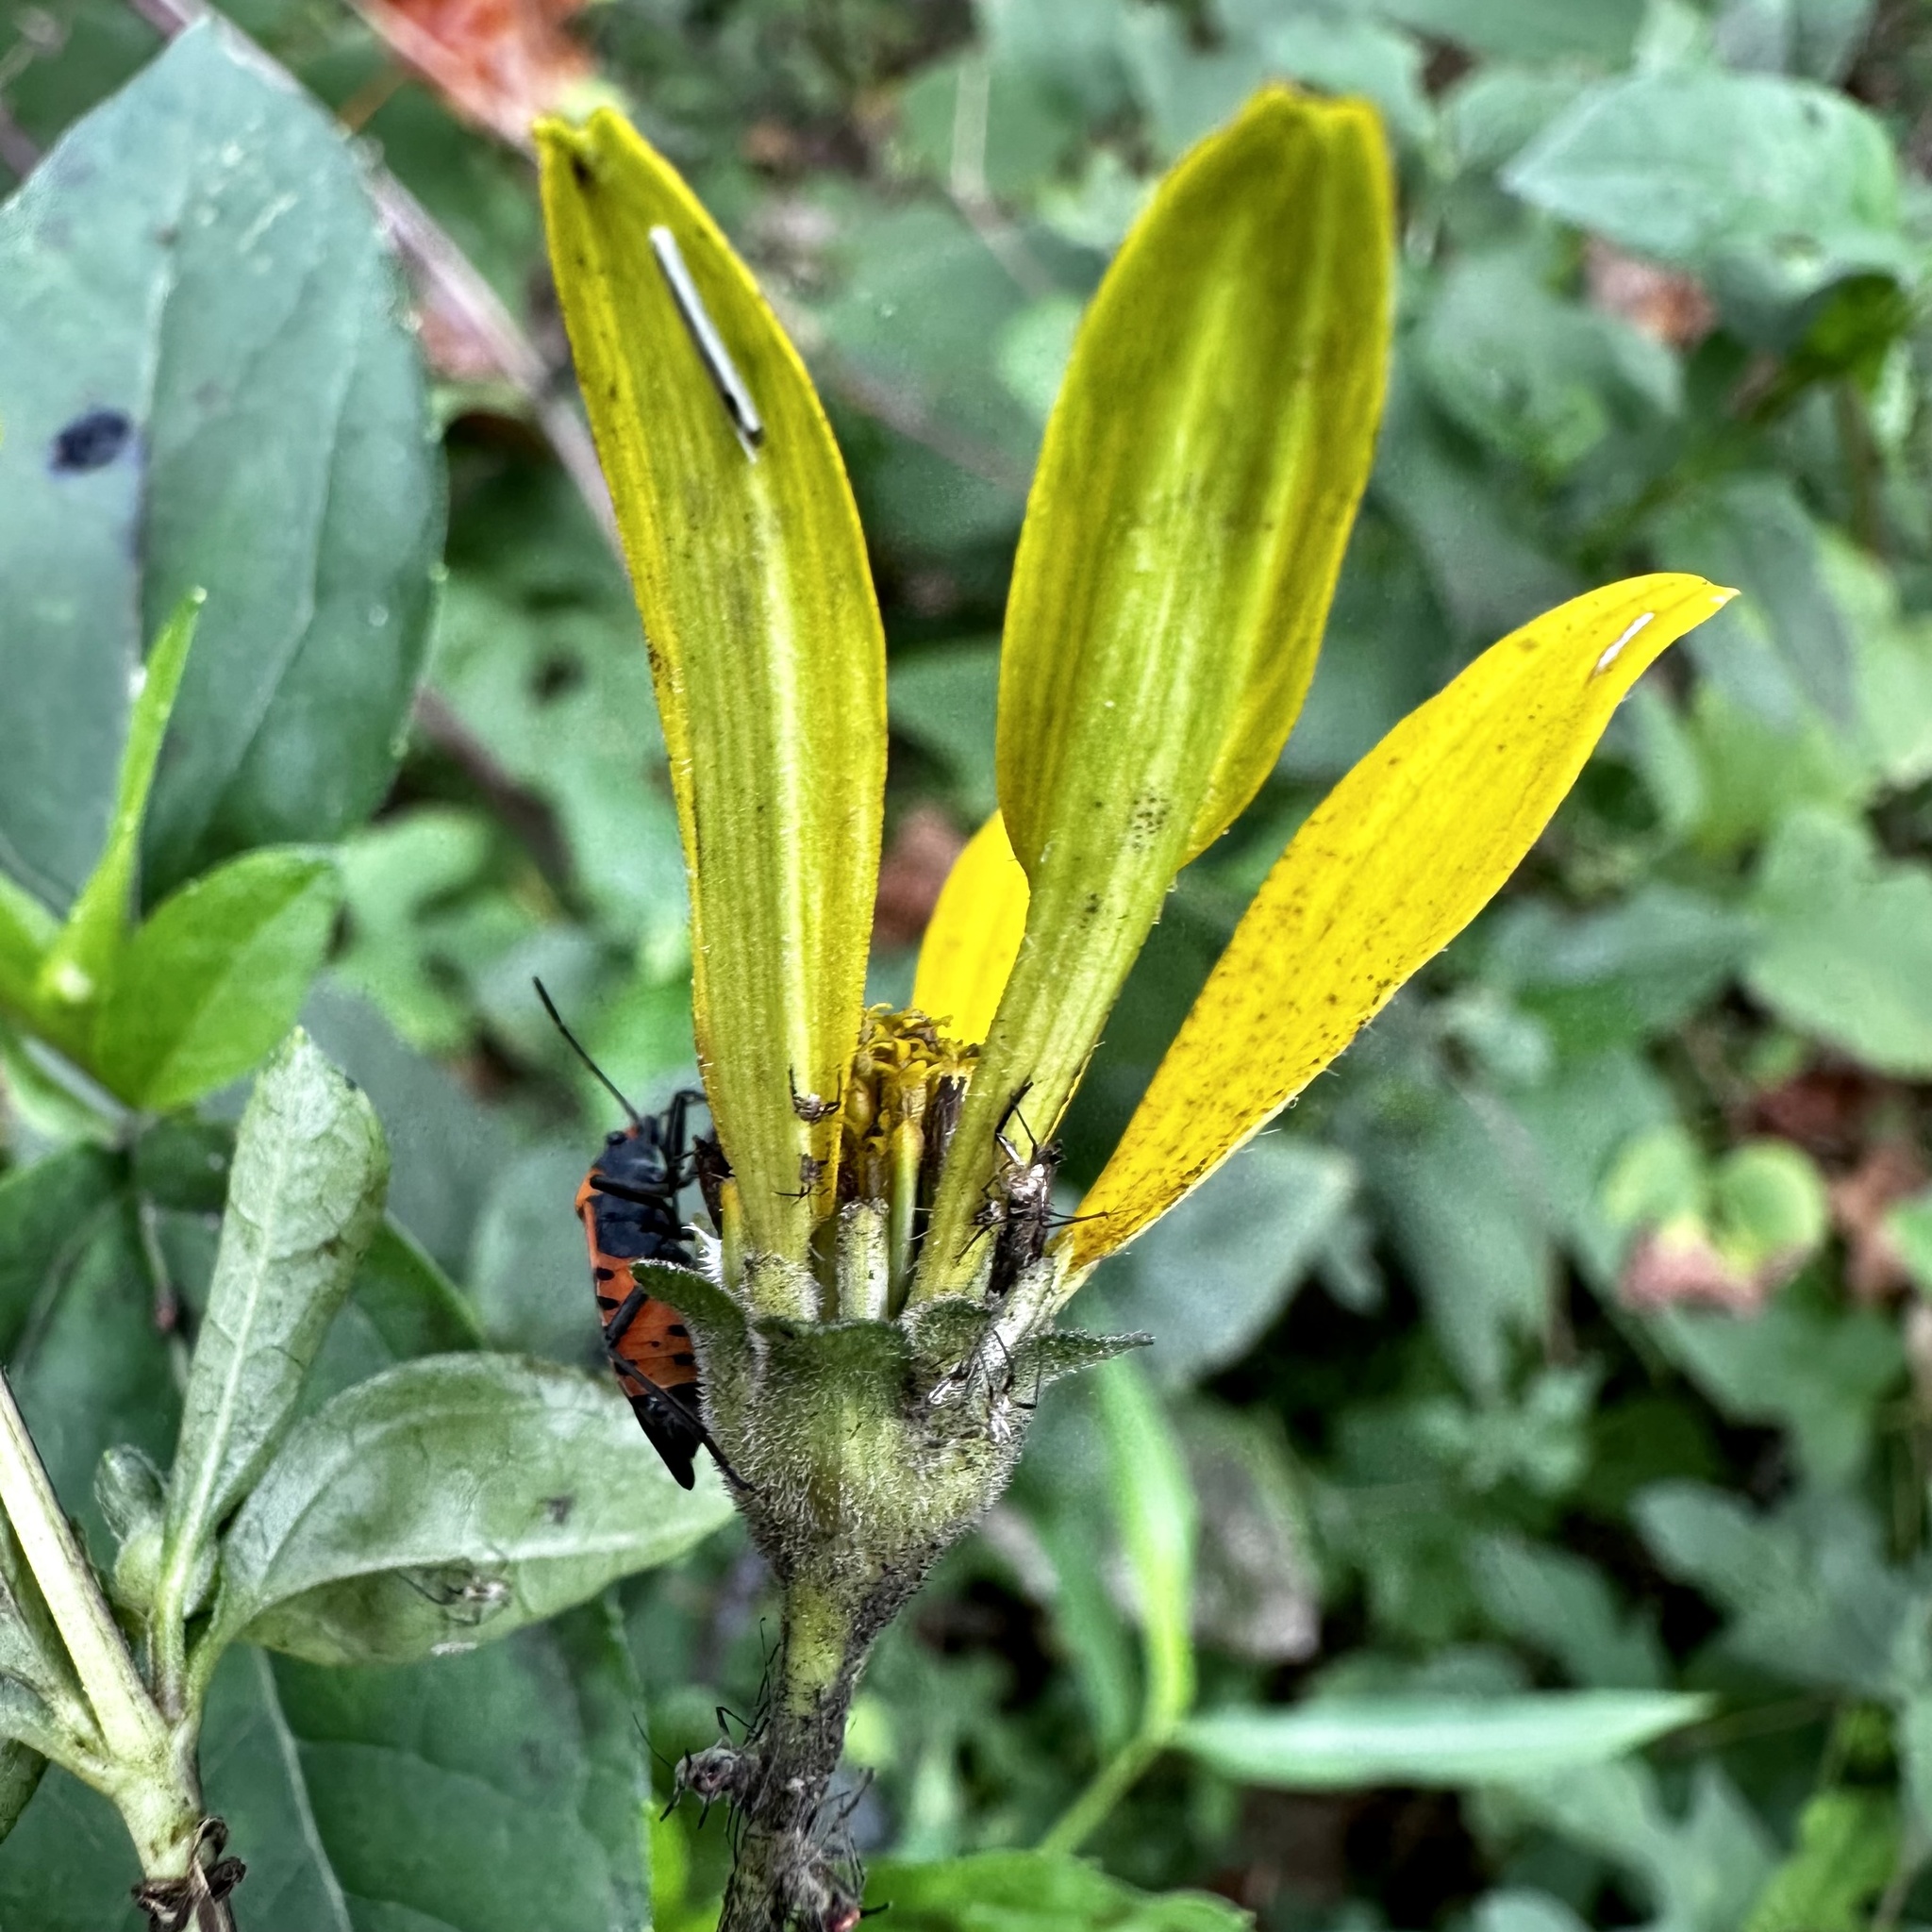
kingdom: Animalia
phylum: Arthropoda
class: Insecta
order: Hemiptera
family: Lygaeidae
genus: Lygaeus
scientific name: Lygaeus turcicus
